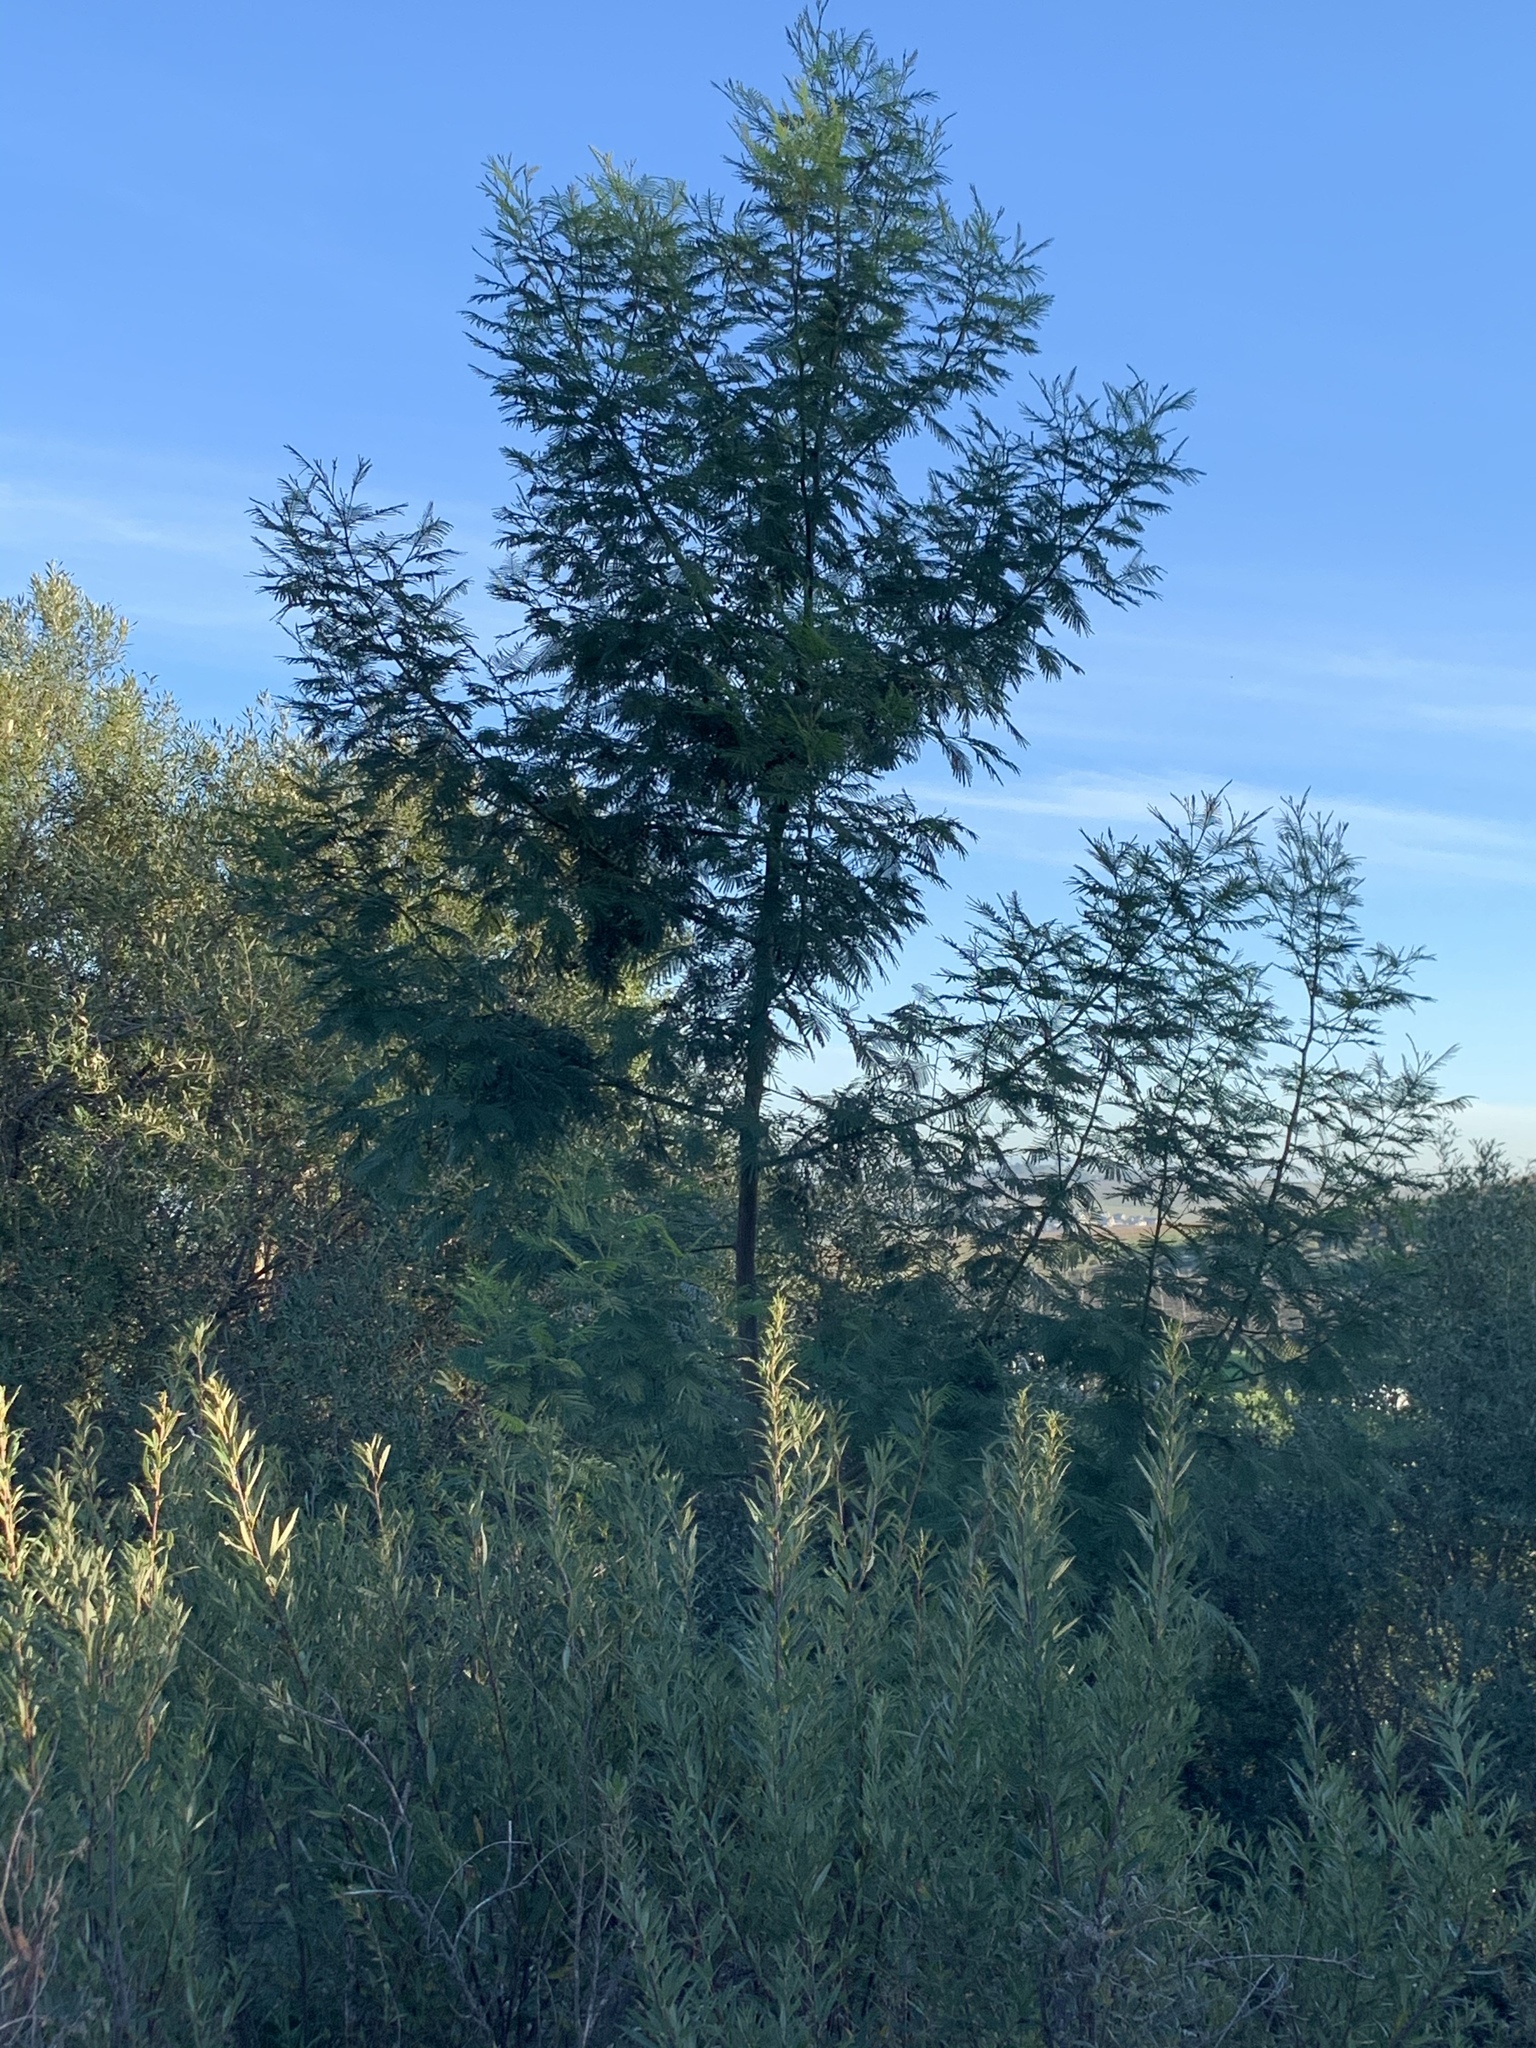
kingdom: Plantae
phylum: Tracheophyta
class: Magnoliopsida
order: Fabales
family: Fabaceae
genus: Acacia
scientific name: Acacia mearnsii
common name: Black wattle
